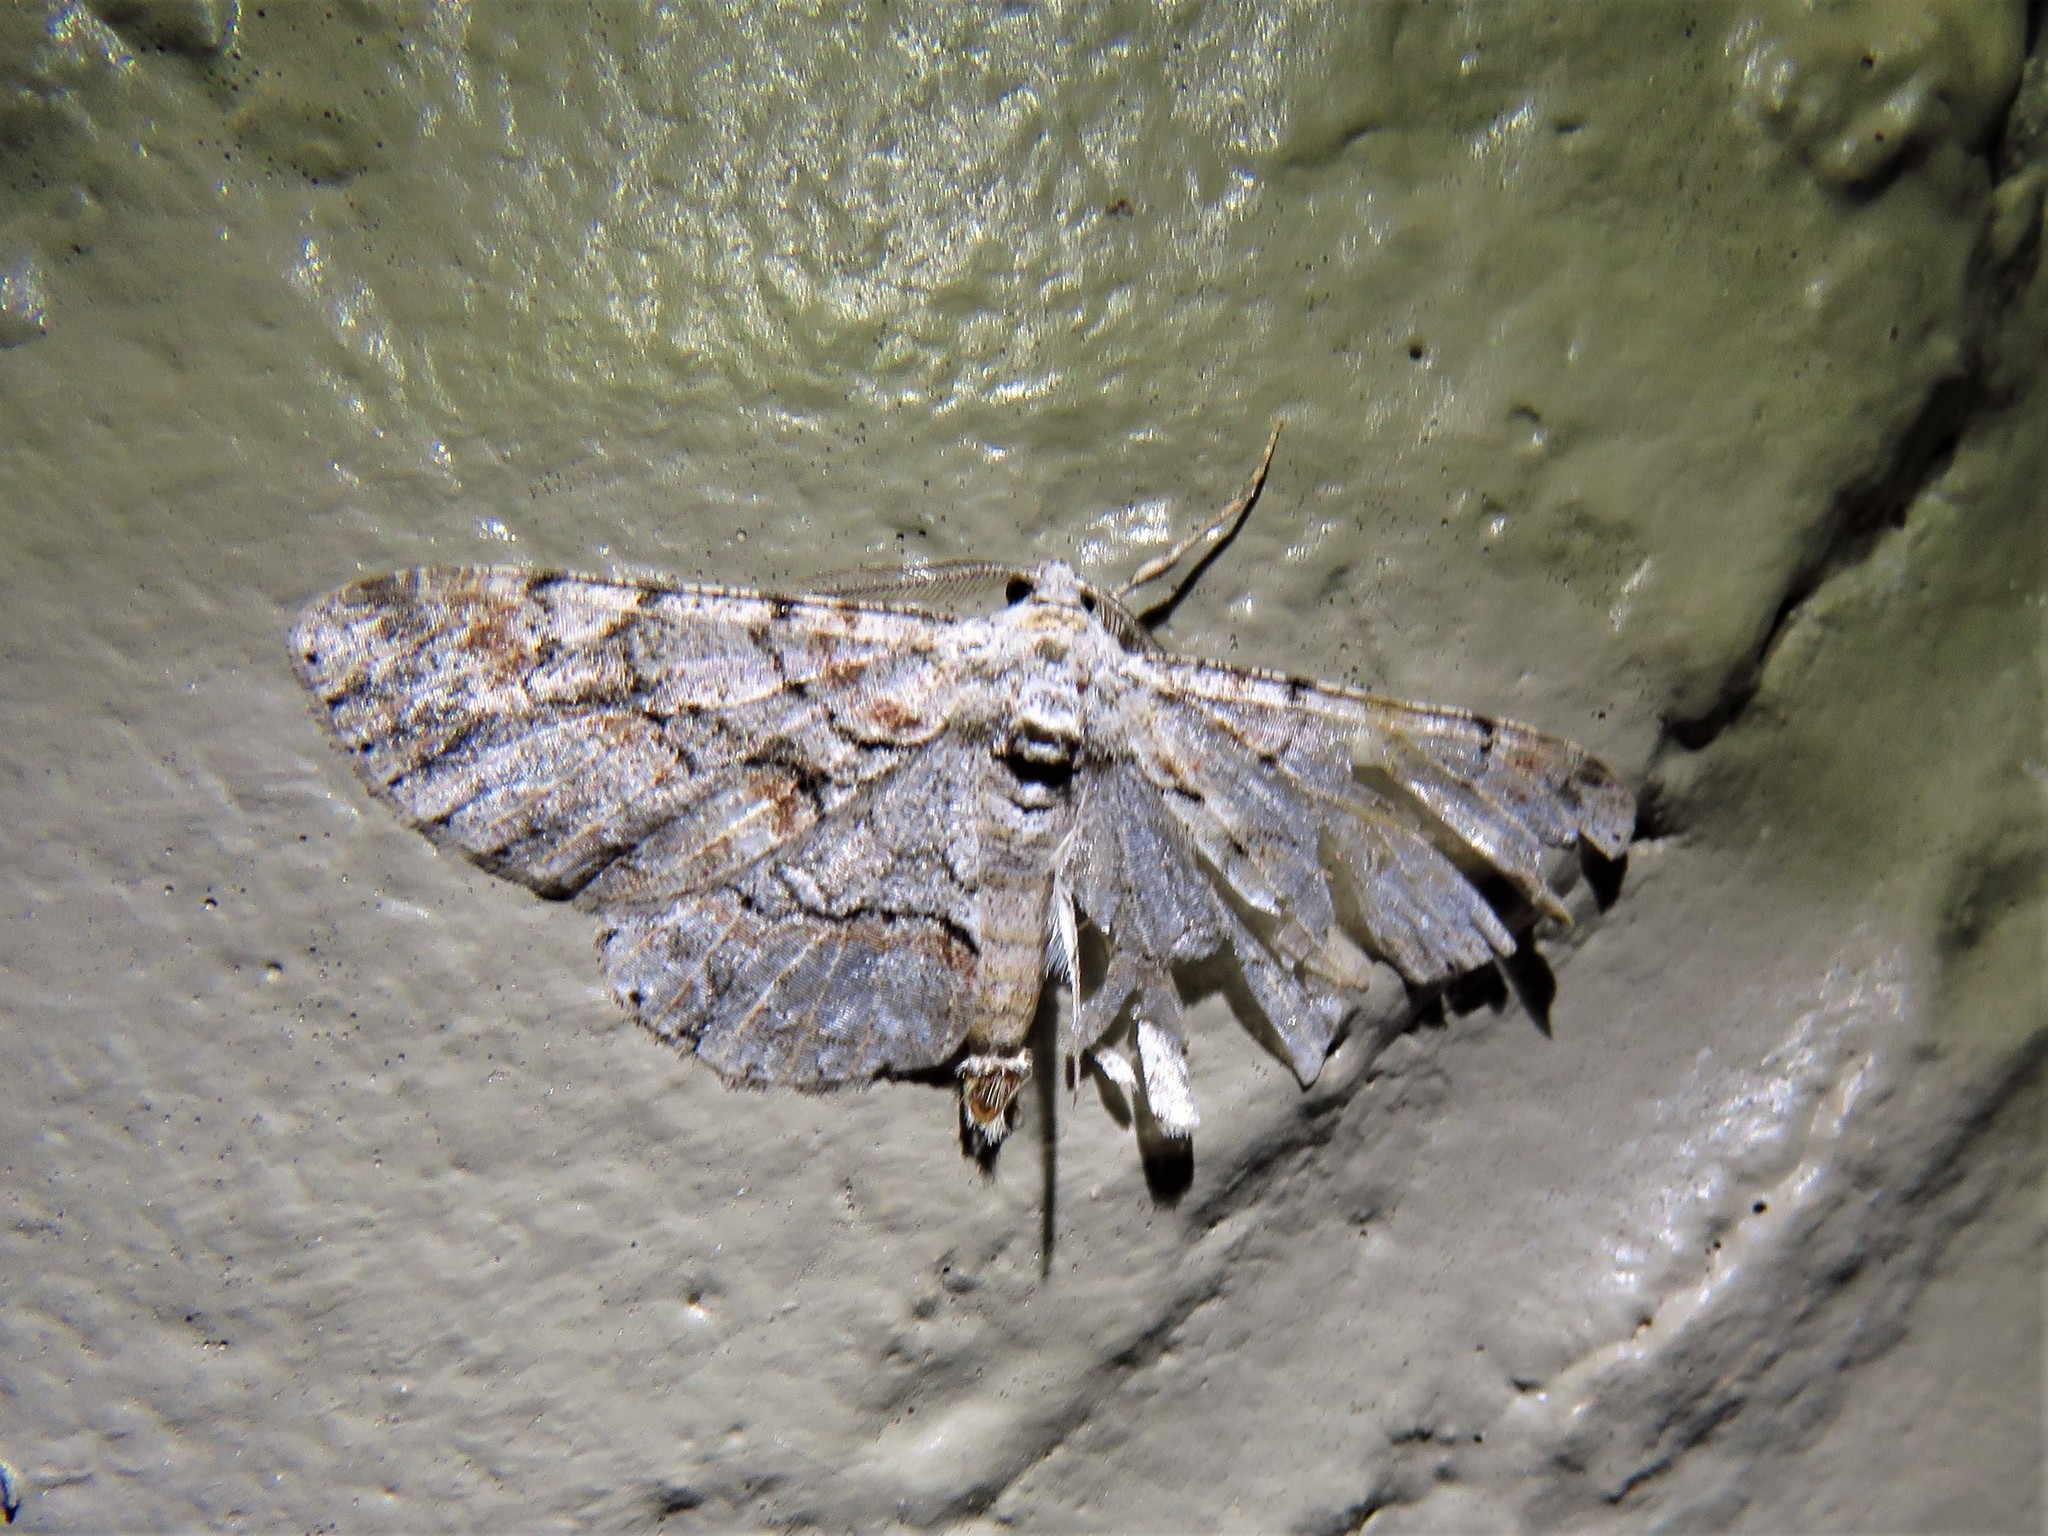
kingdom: Animalia
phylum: Arthropoda
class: Insecta
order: Lepidoptera
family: Geometridae
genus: Iridopsis
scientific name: Iridopsis defectaria
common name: Brown-shaded gray
